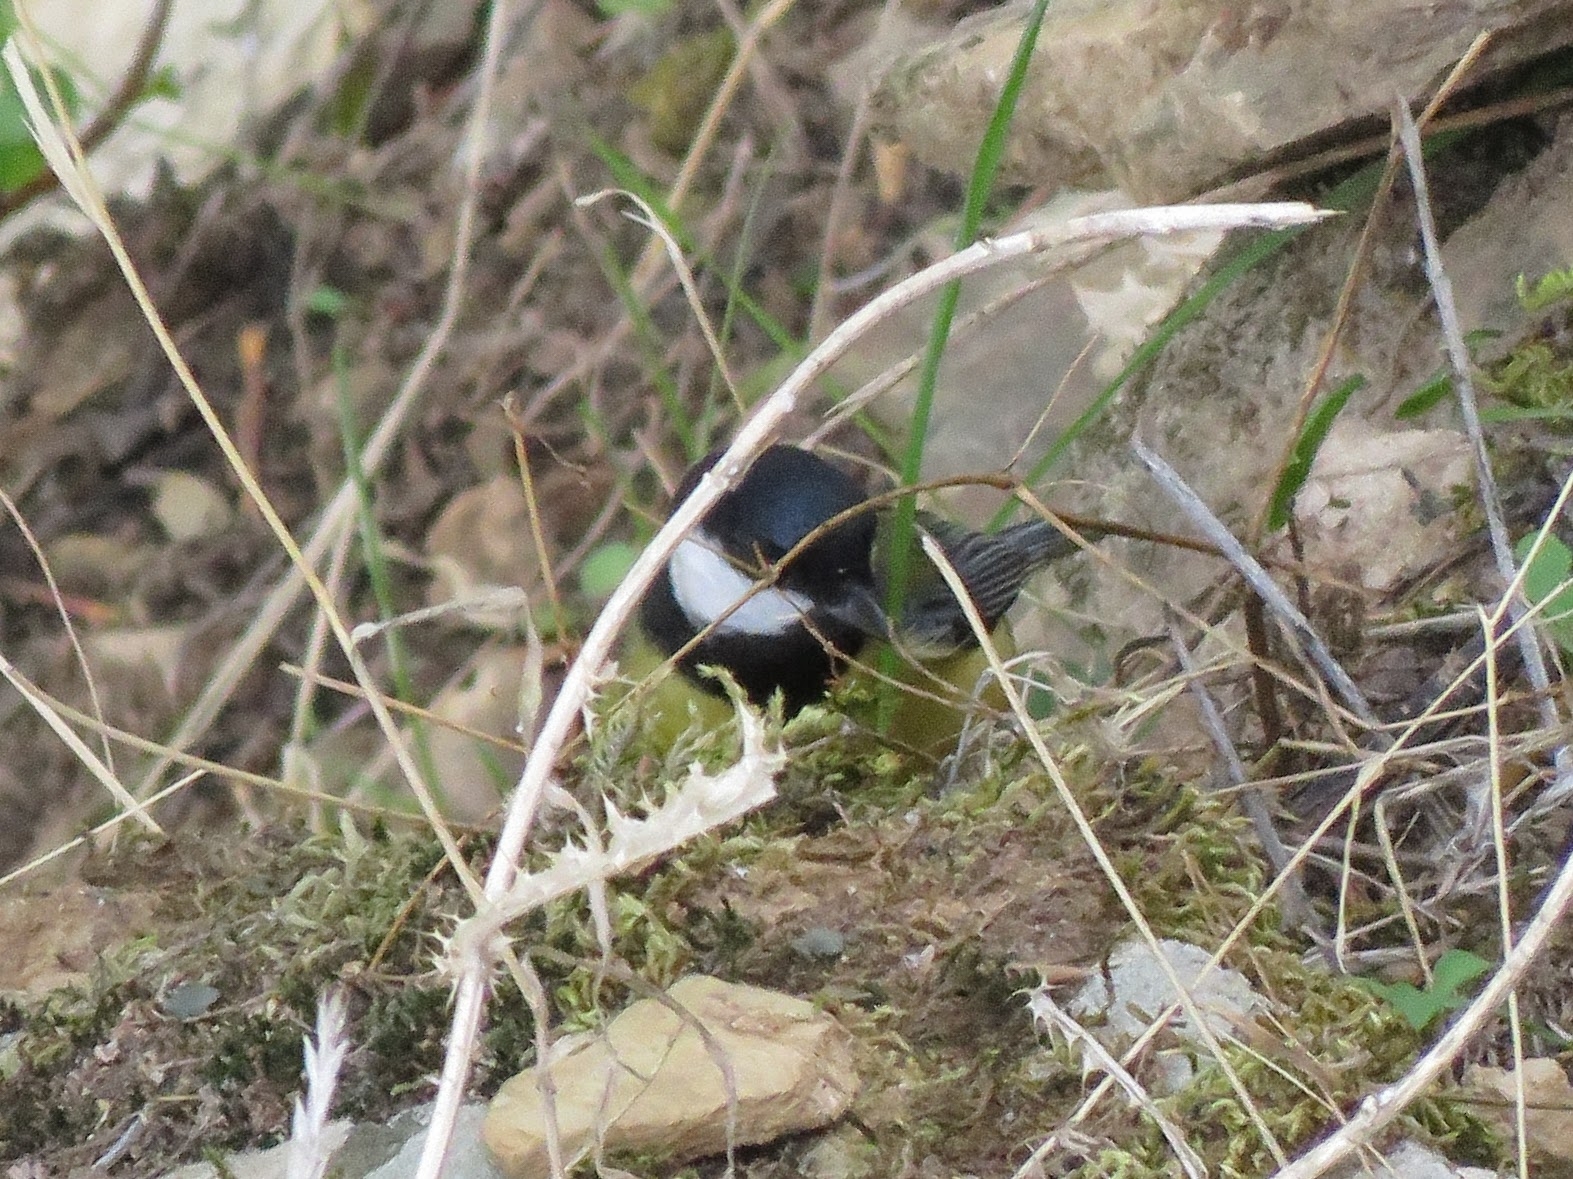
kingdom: Animalia
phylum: Chordata
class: Aves
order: Passeriformes
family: Paridae
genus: Parus
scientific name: Parus major
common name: Great tit
